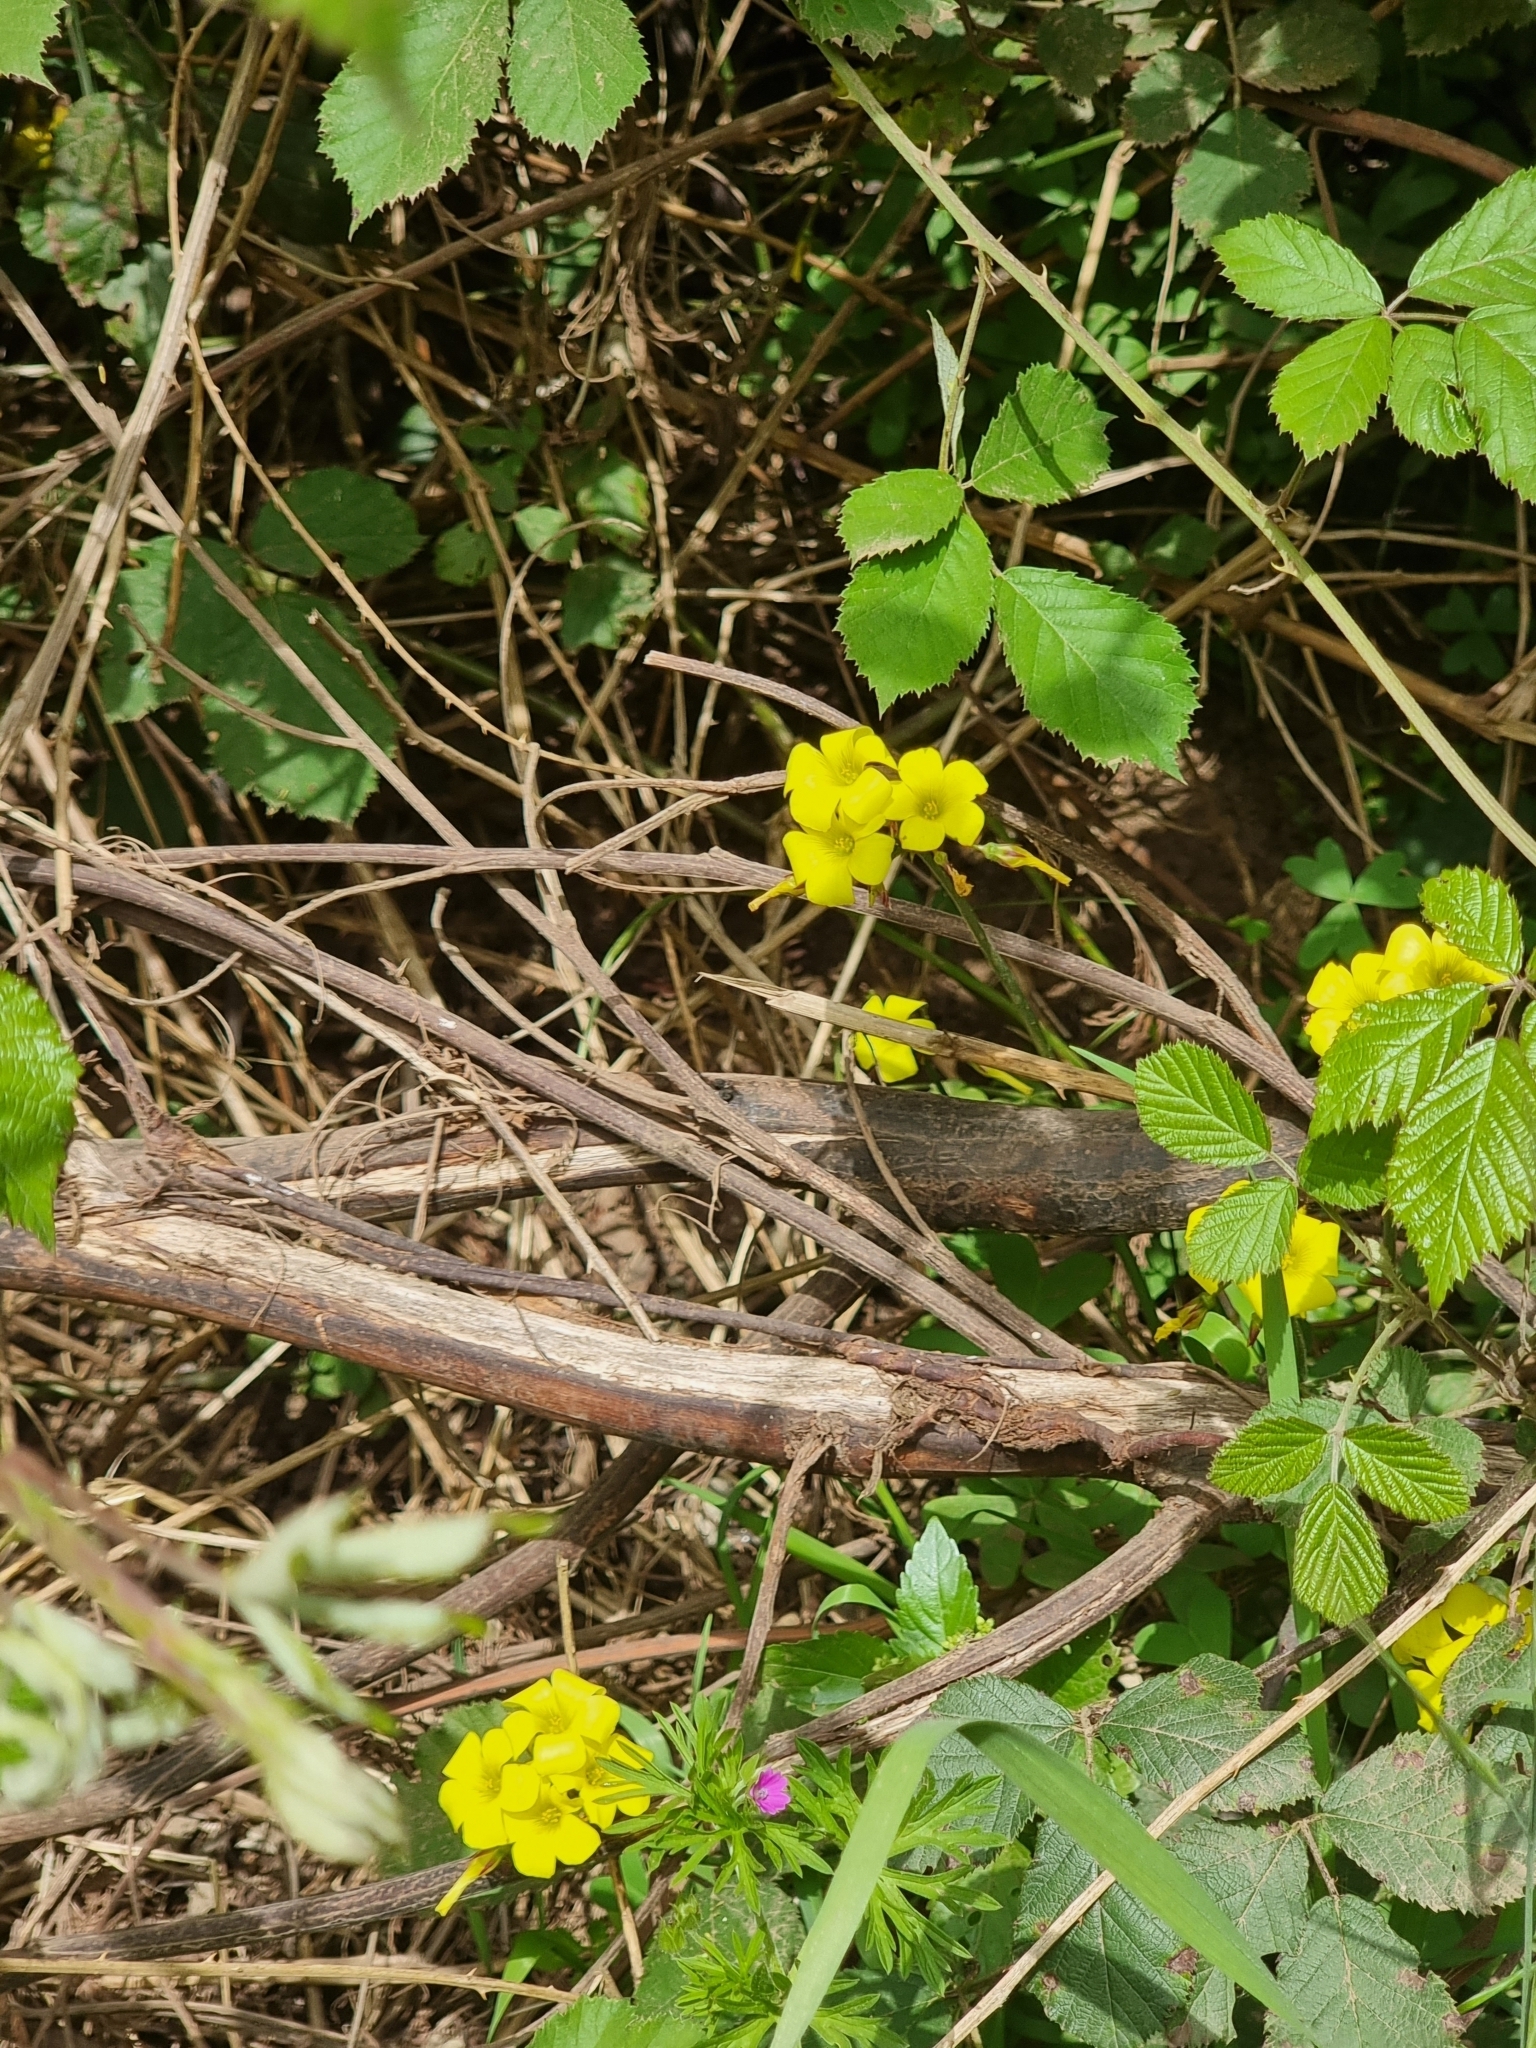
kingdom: Plantae
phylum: Tracheophyta
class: Magnoliopsida
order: Oxalidales
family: Oxalidaceae
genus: Oxalis
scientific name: Oxalis pes-caprae
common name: Bermuda-buttercup
